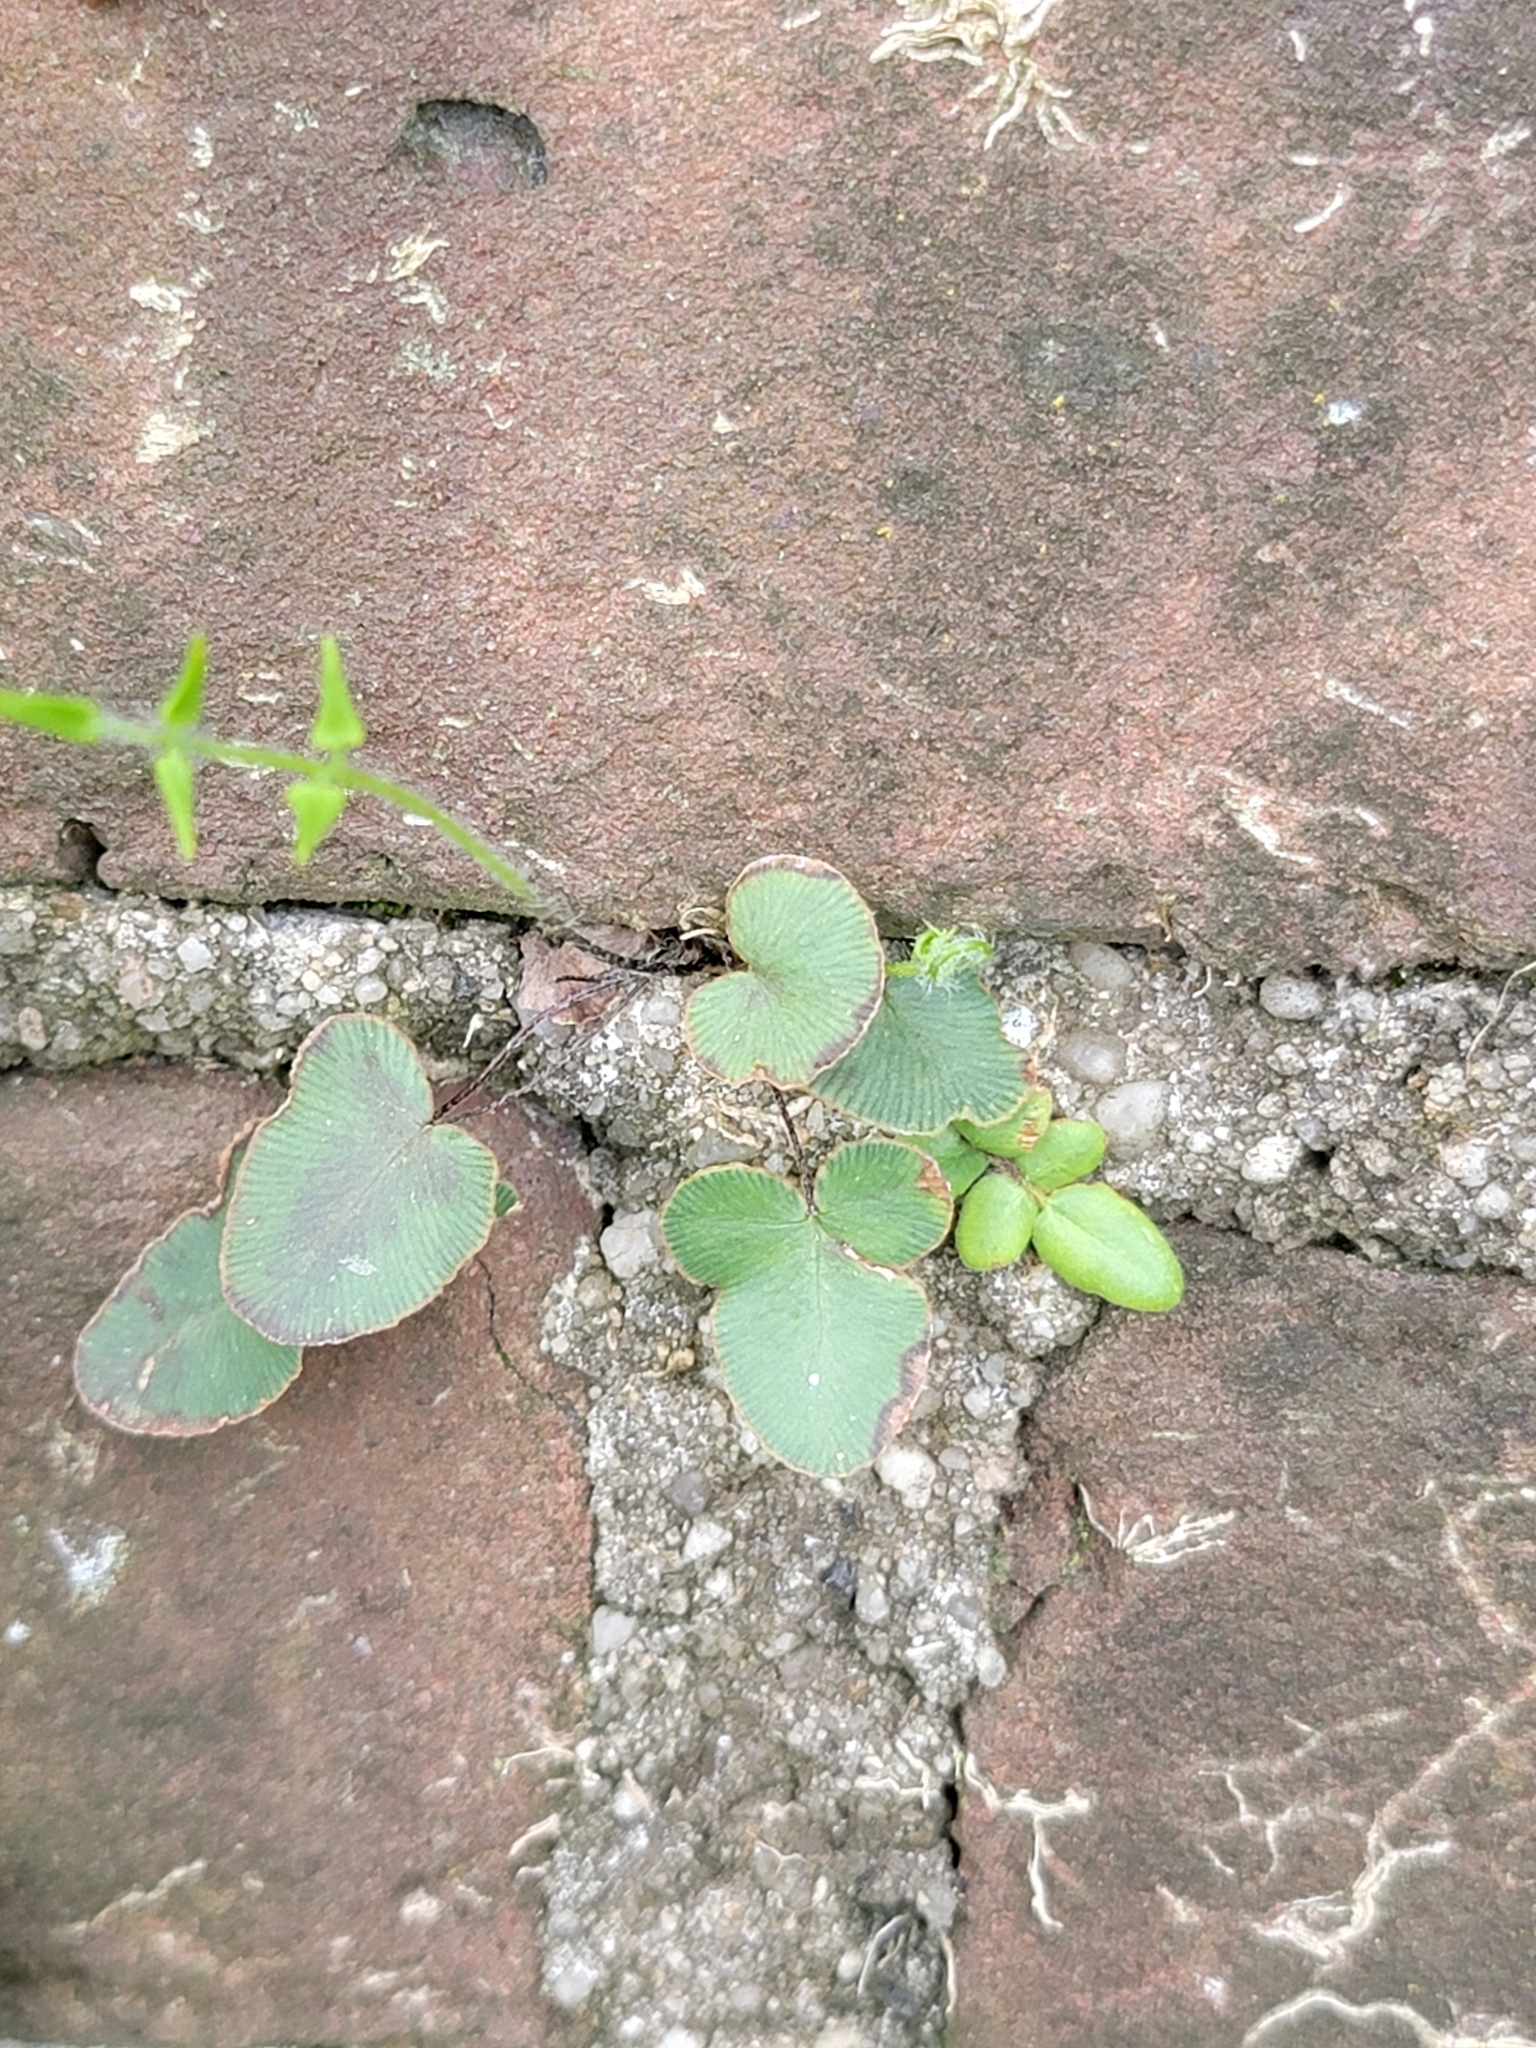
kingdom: Plantae
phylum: Tracheophyta
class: Polypodiopsida
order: Polypodiales
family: Pteridaceae
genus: Pellaea
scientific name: Pellaea atropurpurea
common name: Hairy cliffbrake
